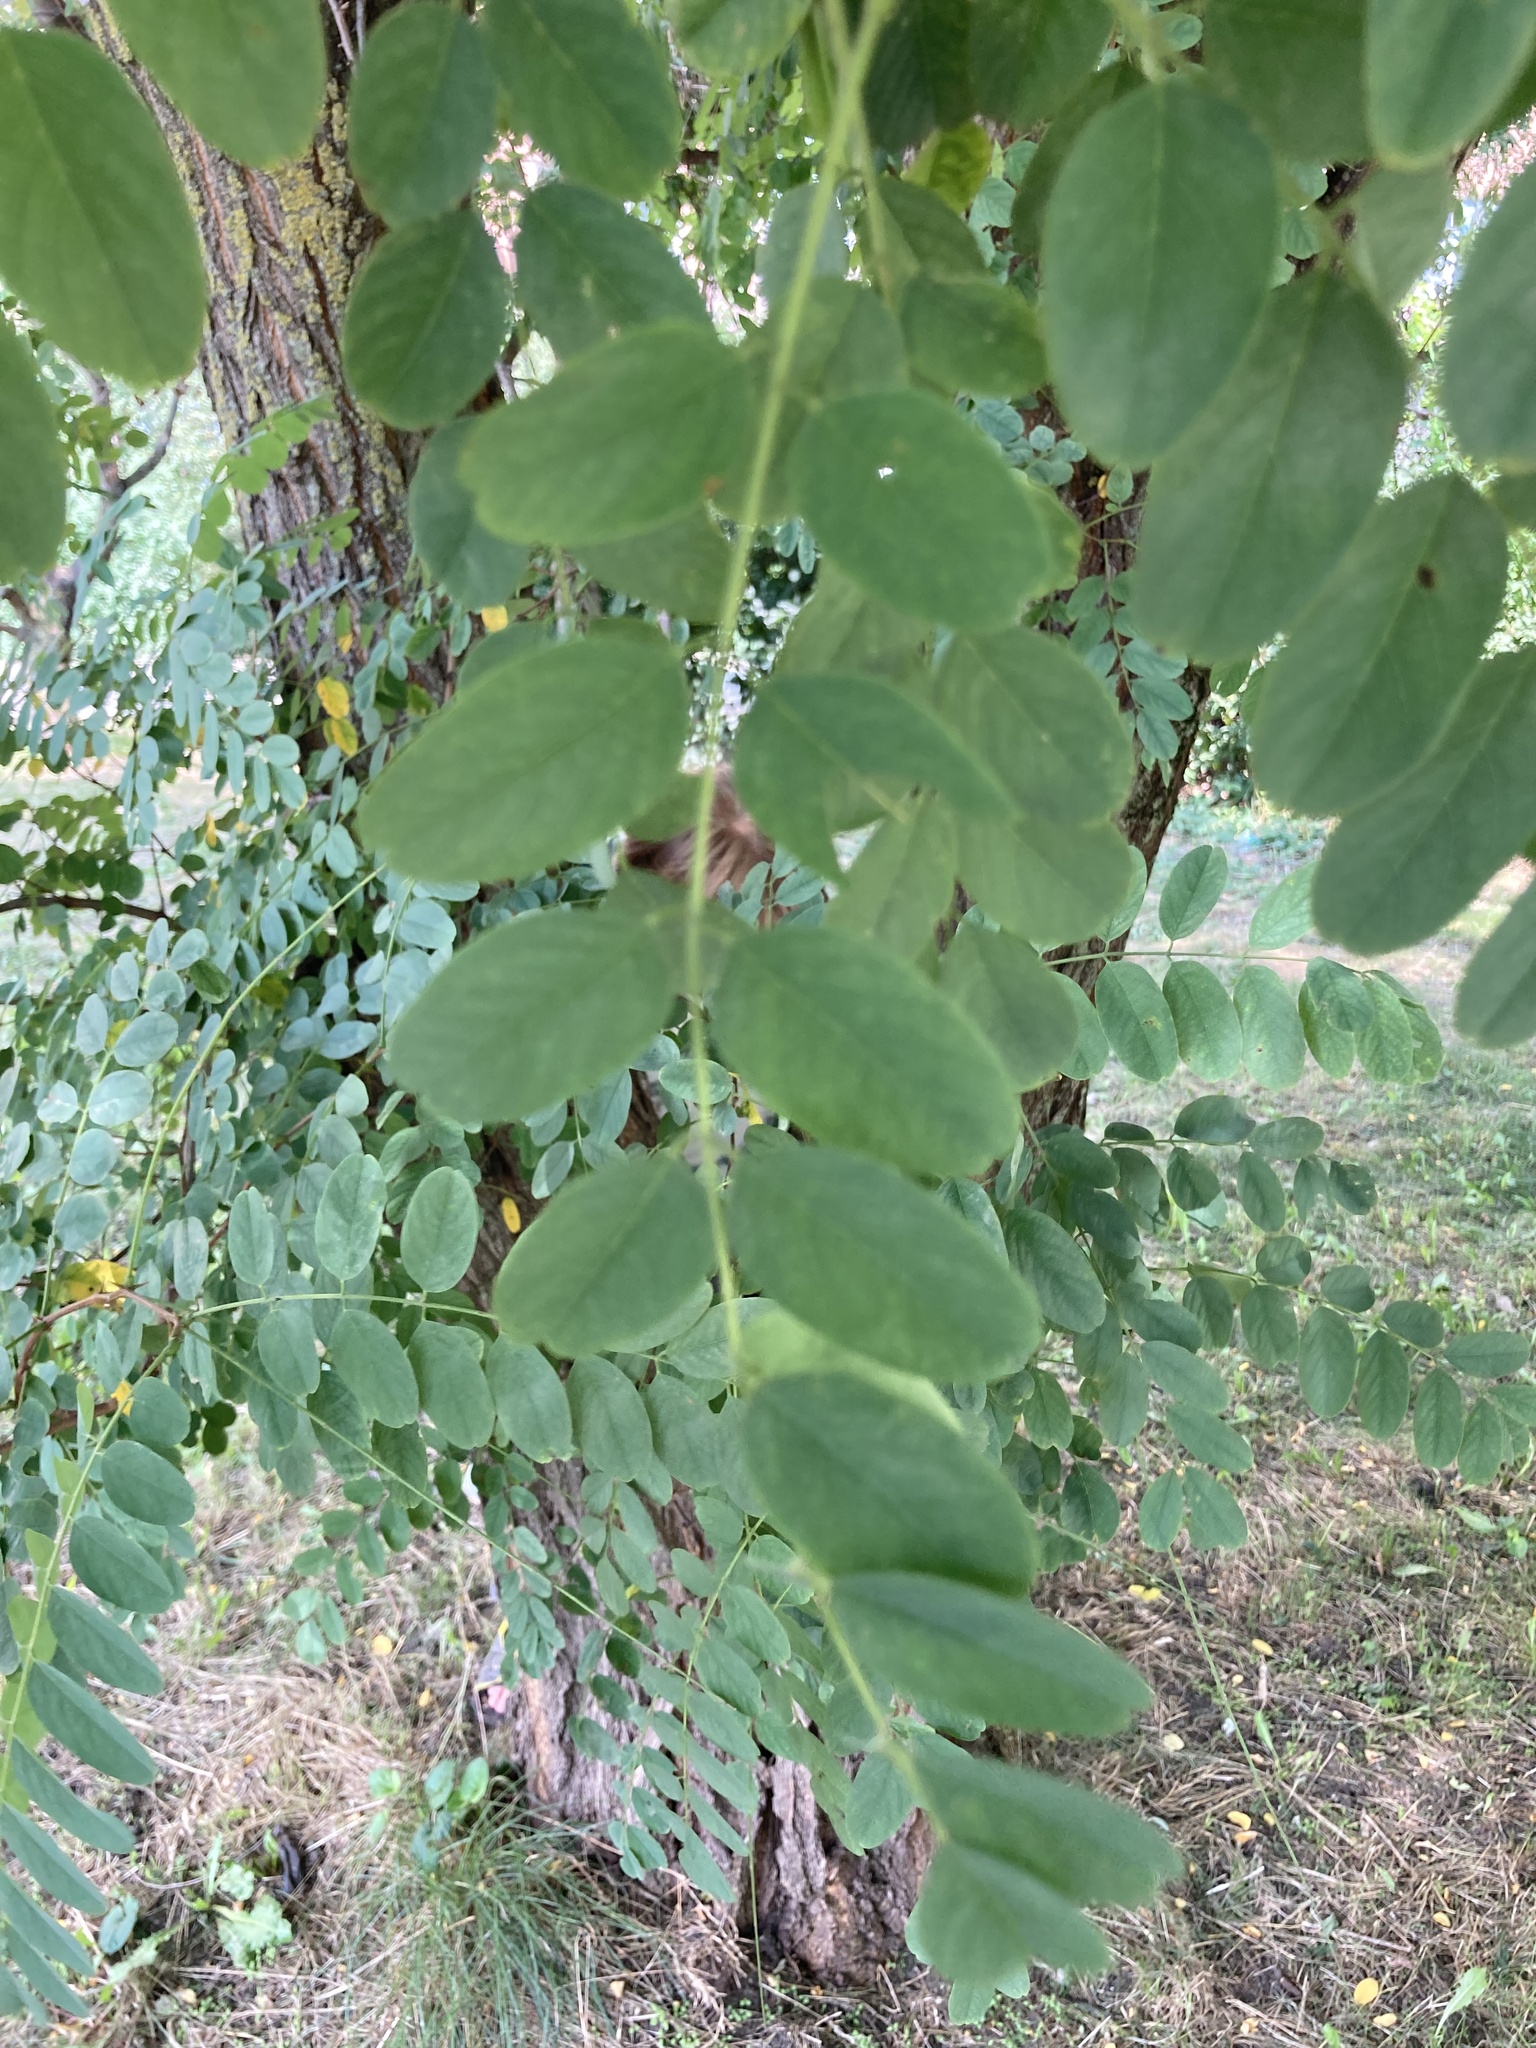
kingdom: Plantae
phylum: Tracheophyta
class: Magnoliopsida
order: Fabales
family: Fabaceae
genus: Robinia
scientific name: Robinia pseudoacacia
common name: Black locust
